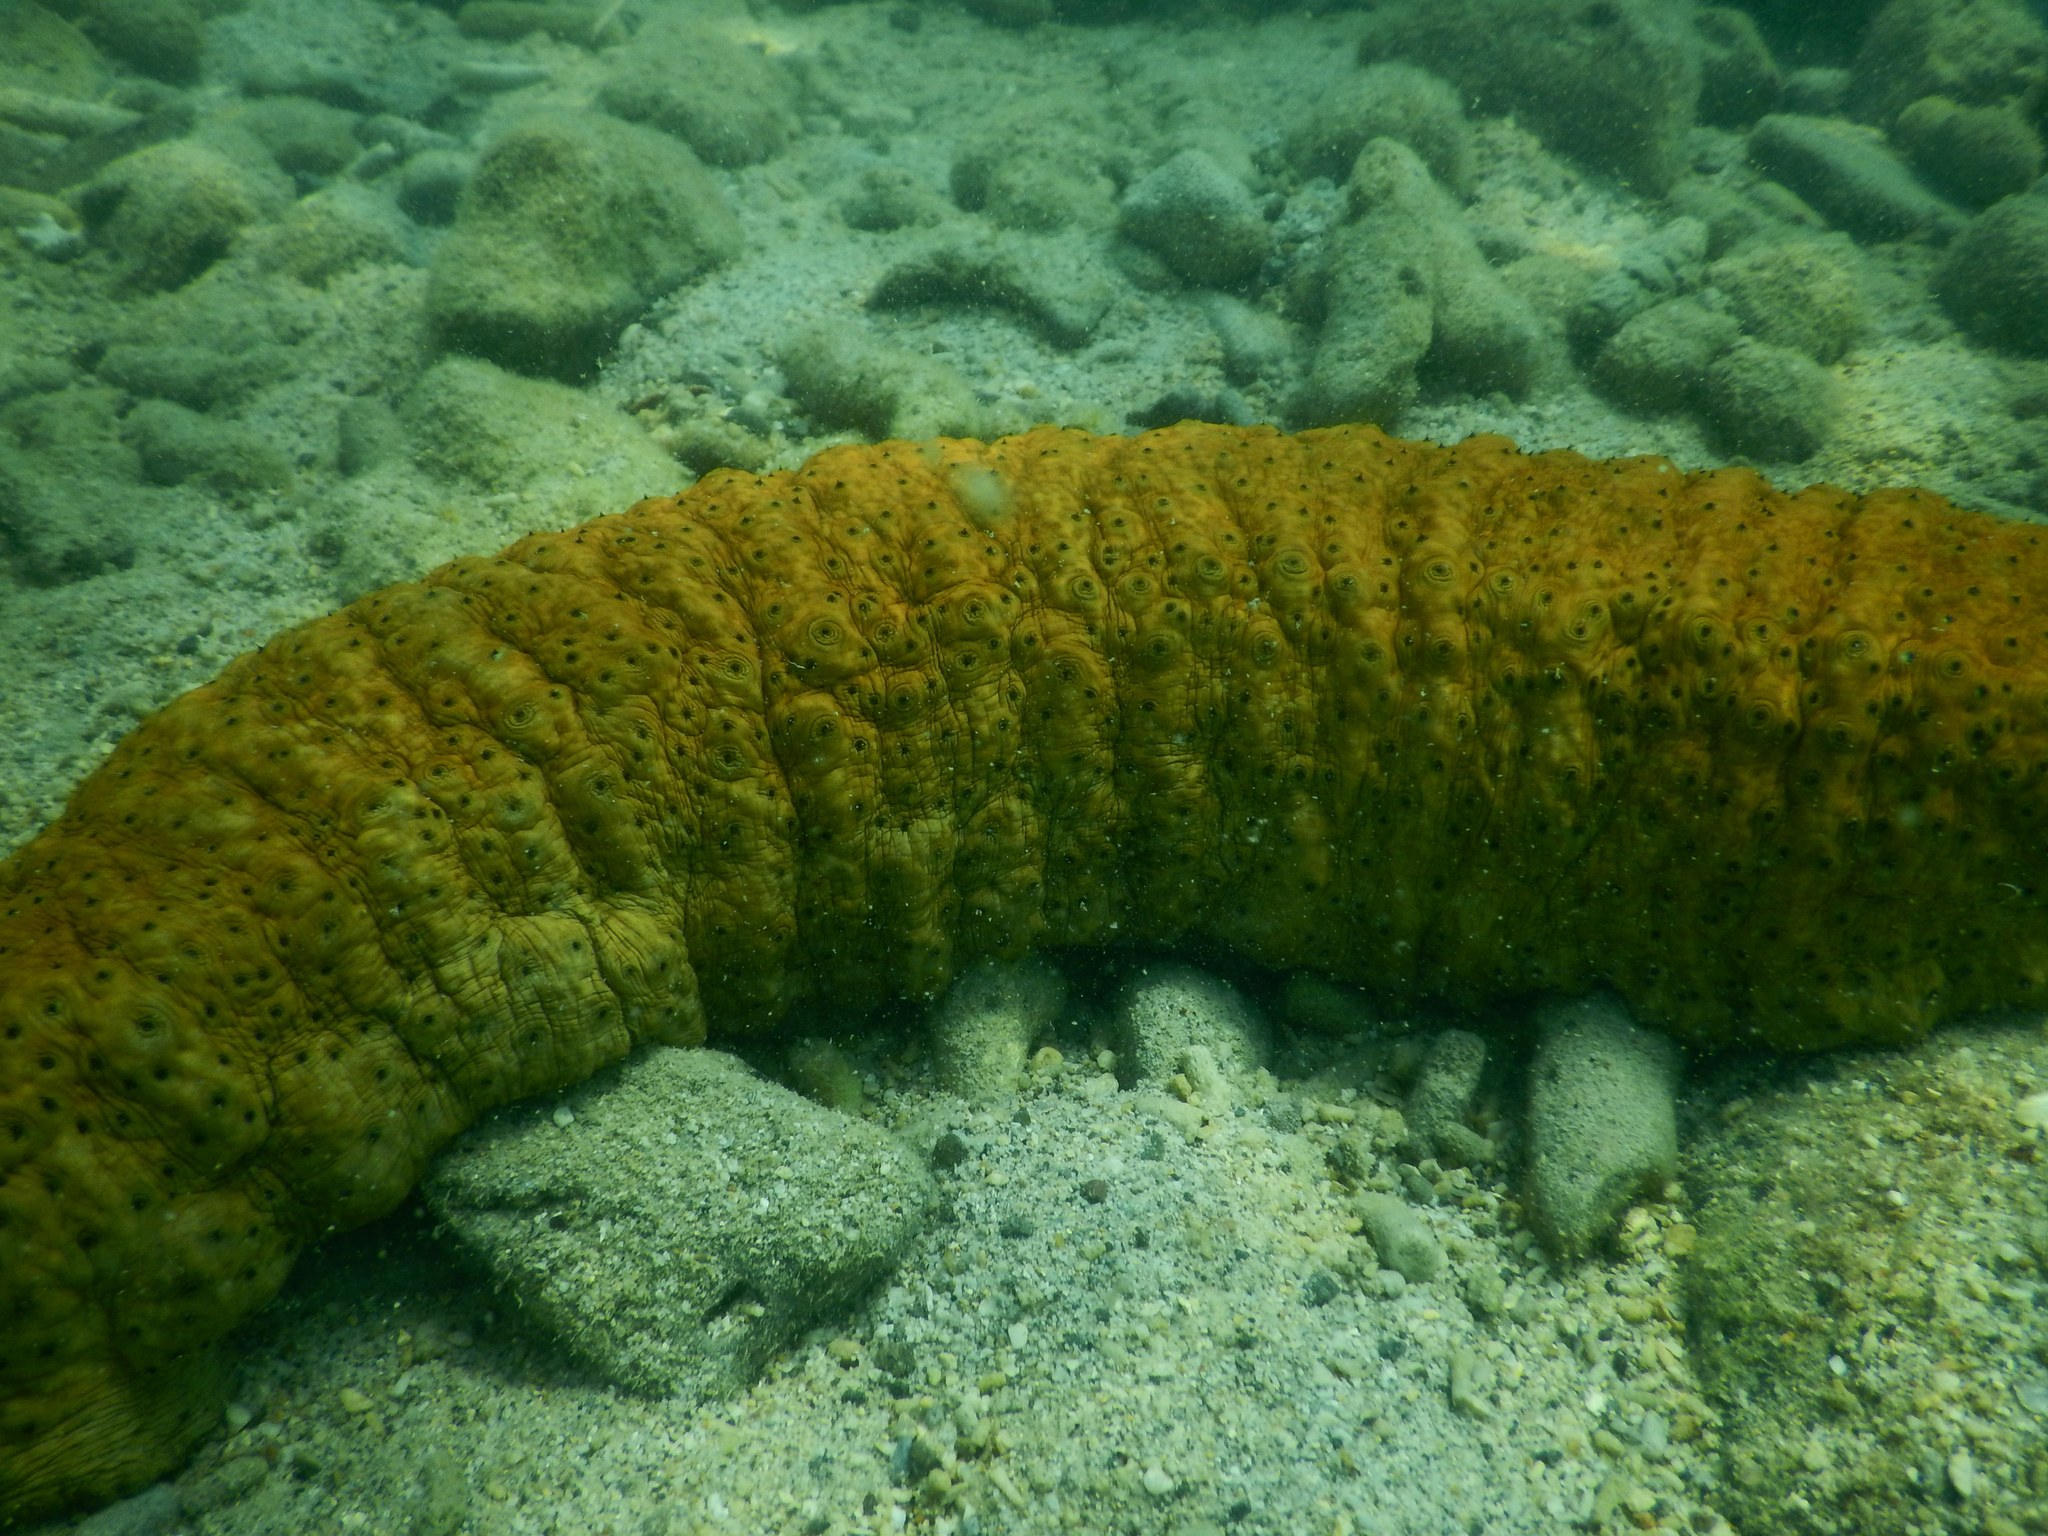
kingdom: Animalia
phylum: Echinodermata
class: Holothuroidea
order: Synallactida
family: Stichopodidae
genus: Stichopus
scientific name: Stichopus herrmanni
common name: Curryfish
